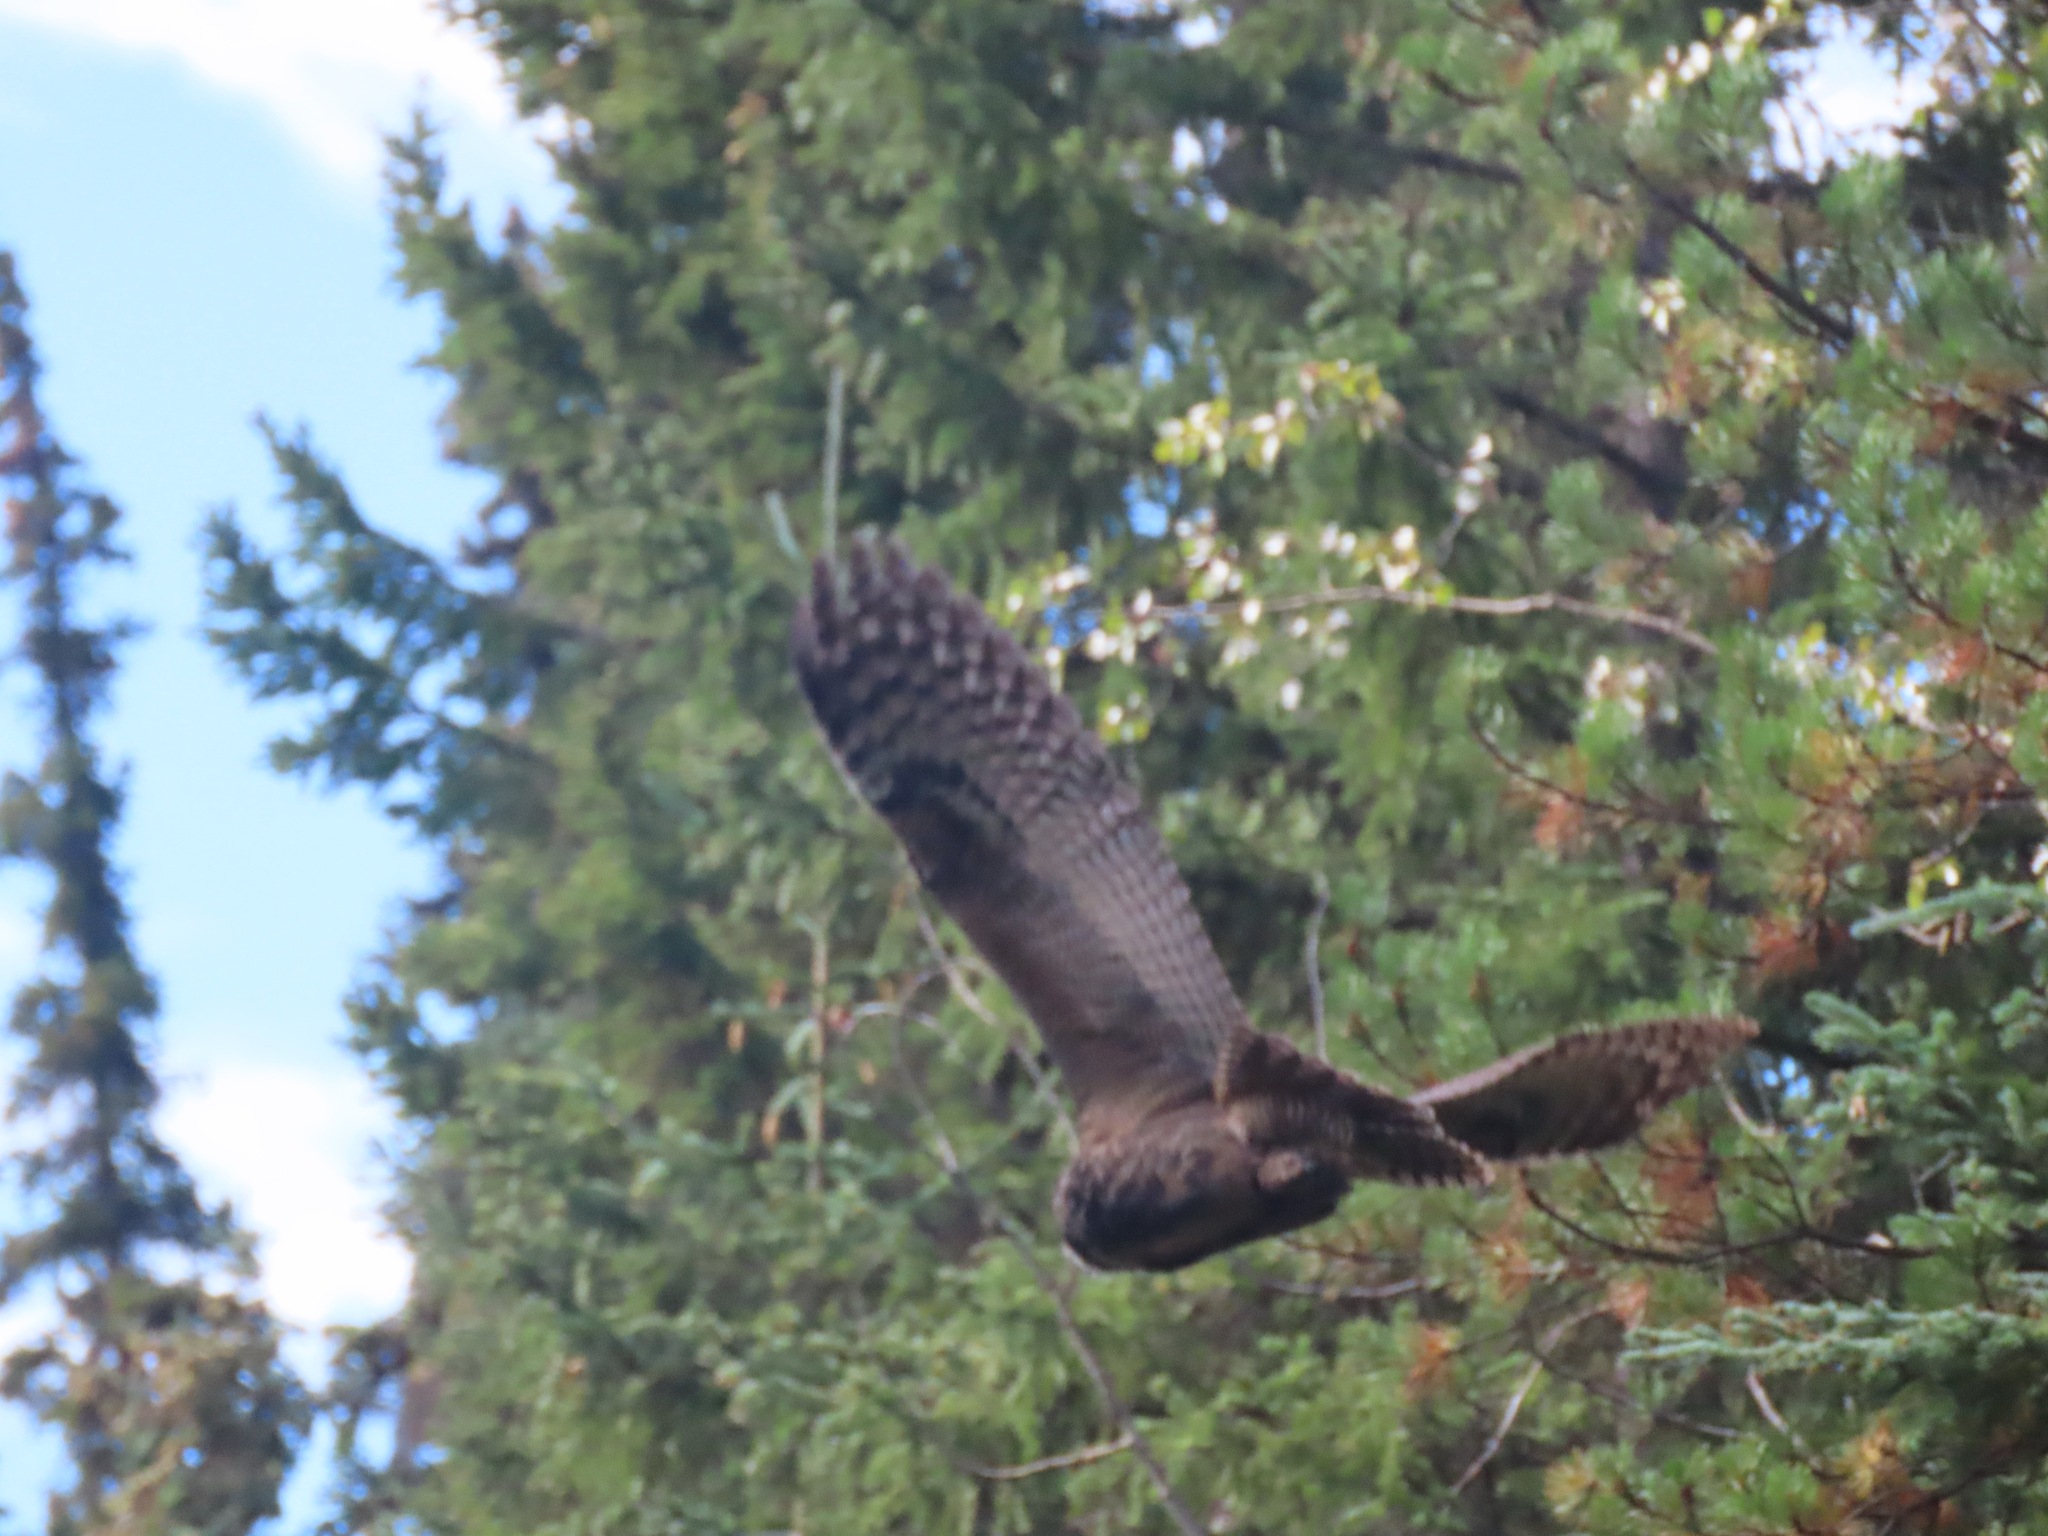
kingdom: Animalia
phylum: Chordata
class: Aves
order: Strigiformes
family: Strigidae
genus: Bubo
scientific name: Bubo virginianus
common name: Great horned owl
